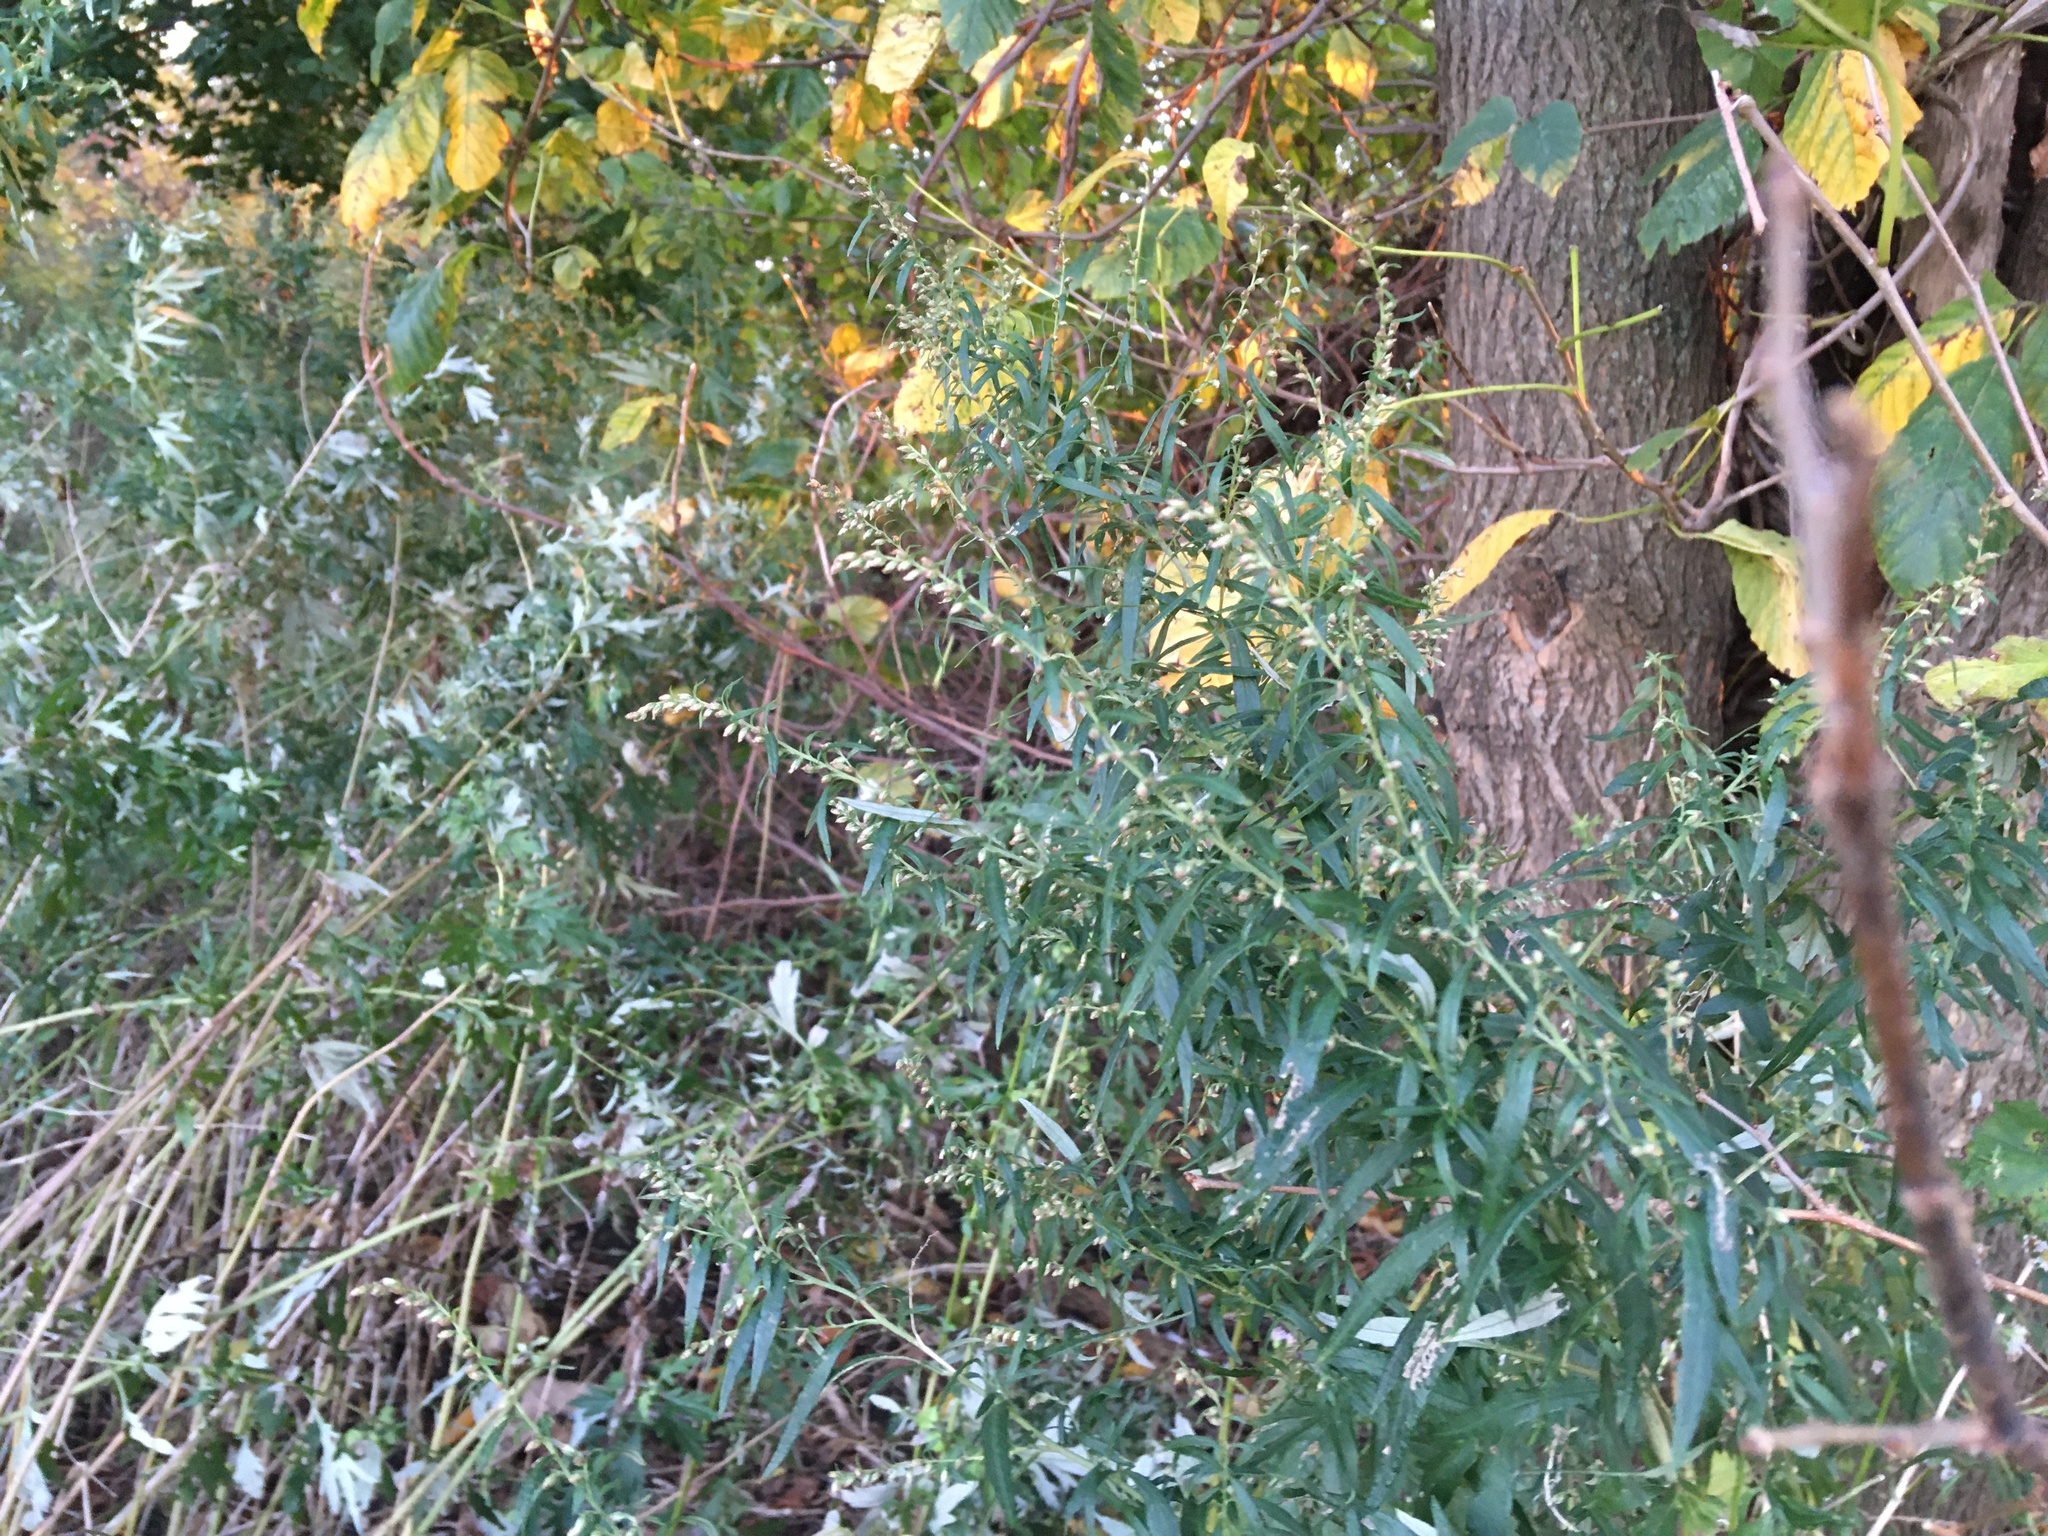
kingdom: Plantae
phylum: Tracheophyta
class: Magnoliopsida
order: Asterales
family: Asteraceae
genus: Artemisia
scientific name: Artemisia vulgaris
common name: Mugwort
